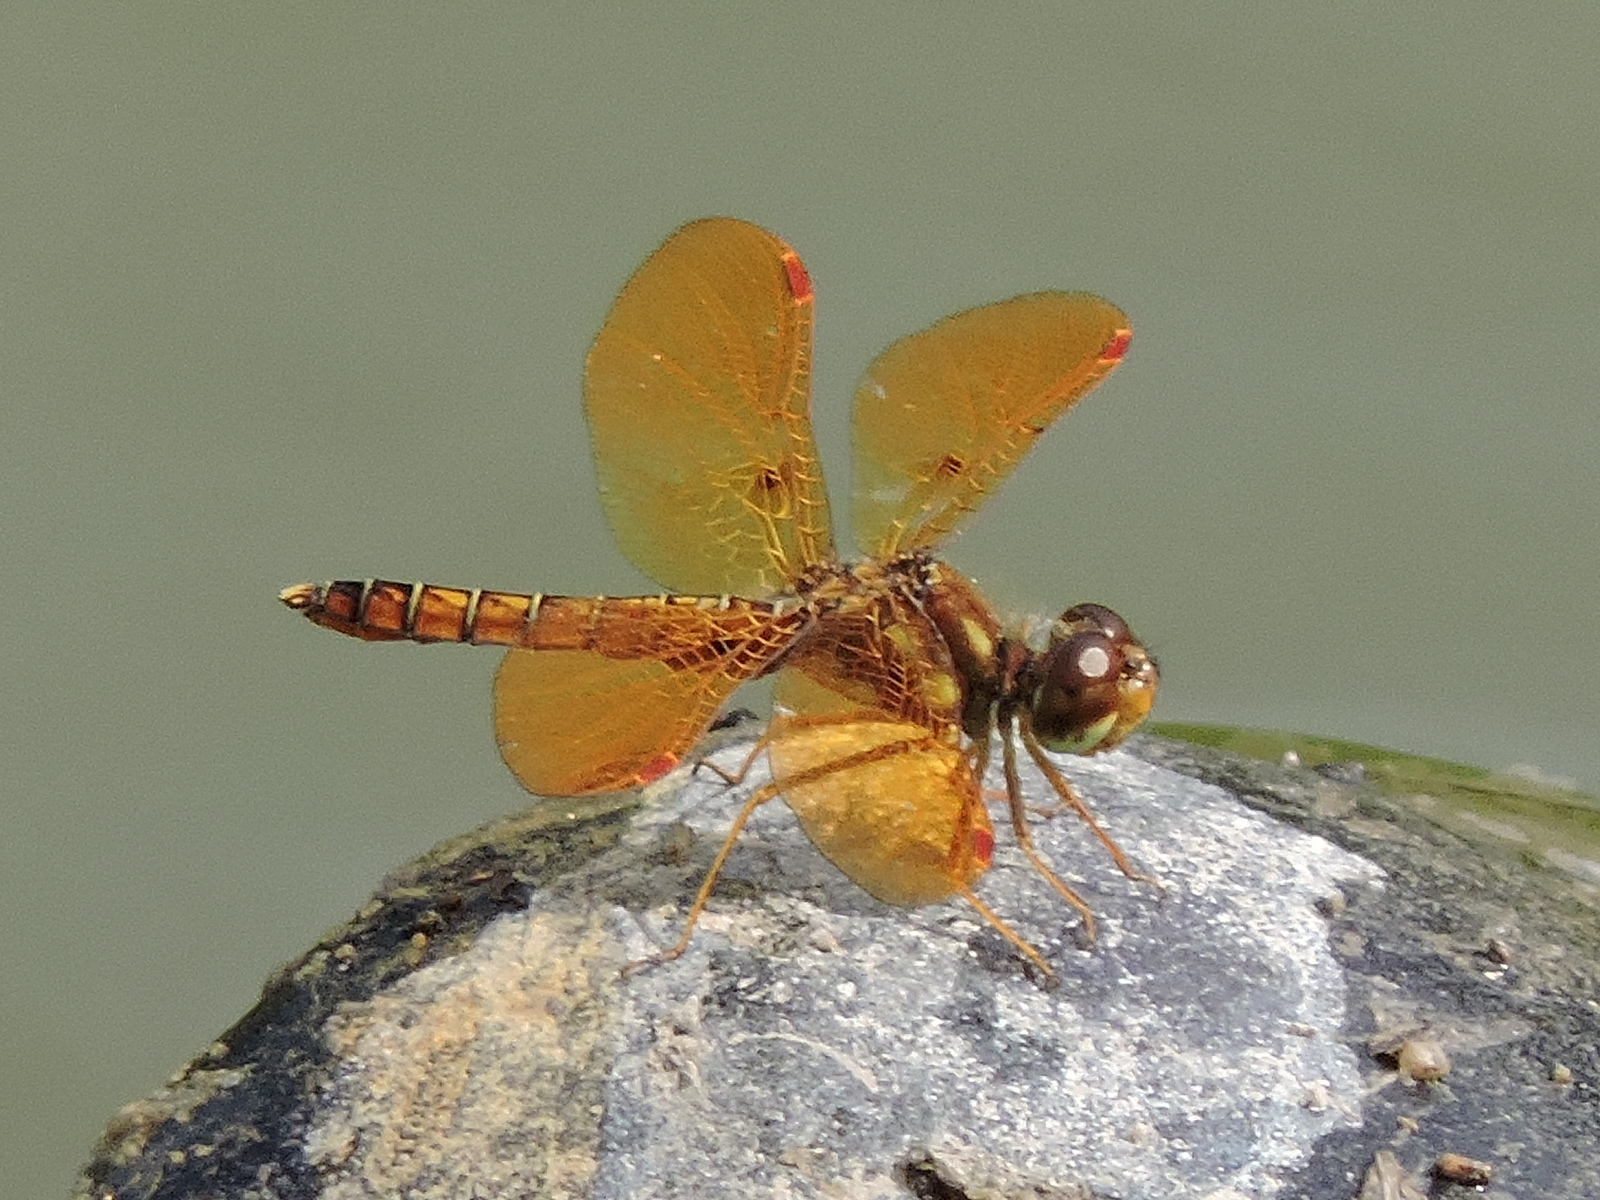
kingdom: Animalia
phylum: Arthropoda
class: Insecta
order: Odonata
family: Libellulidae
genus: Perithemis
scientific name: Perithemis tenera
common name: Eastern amberwing
